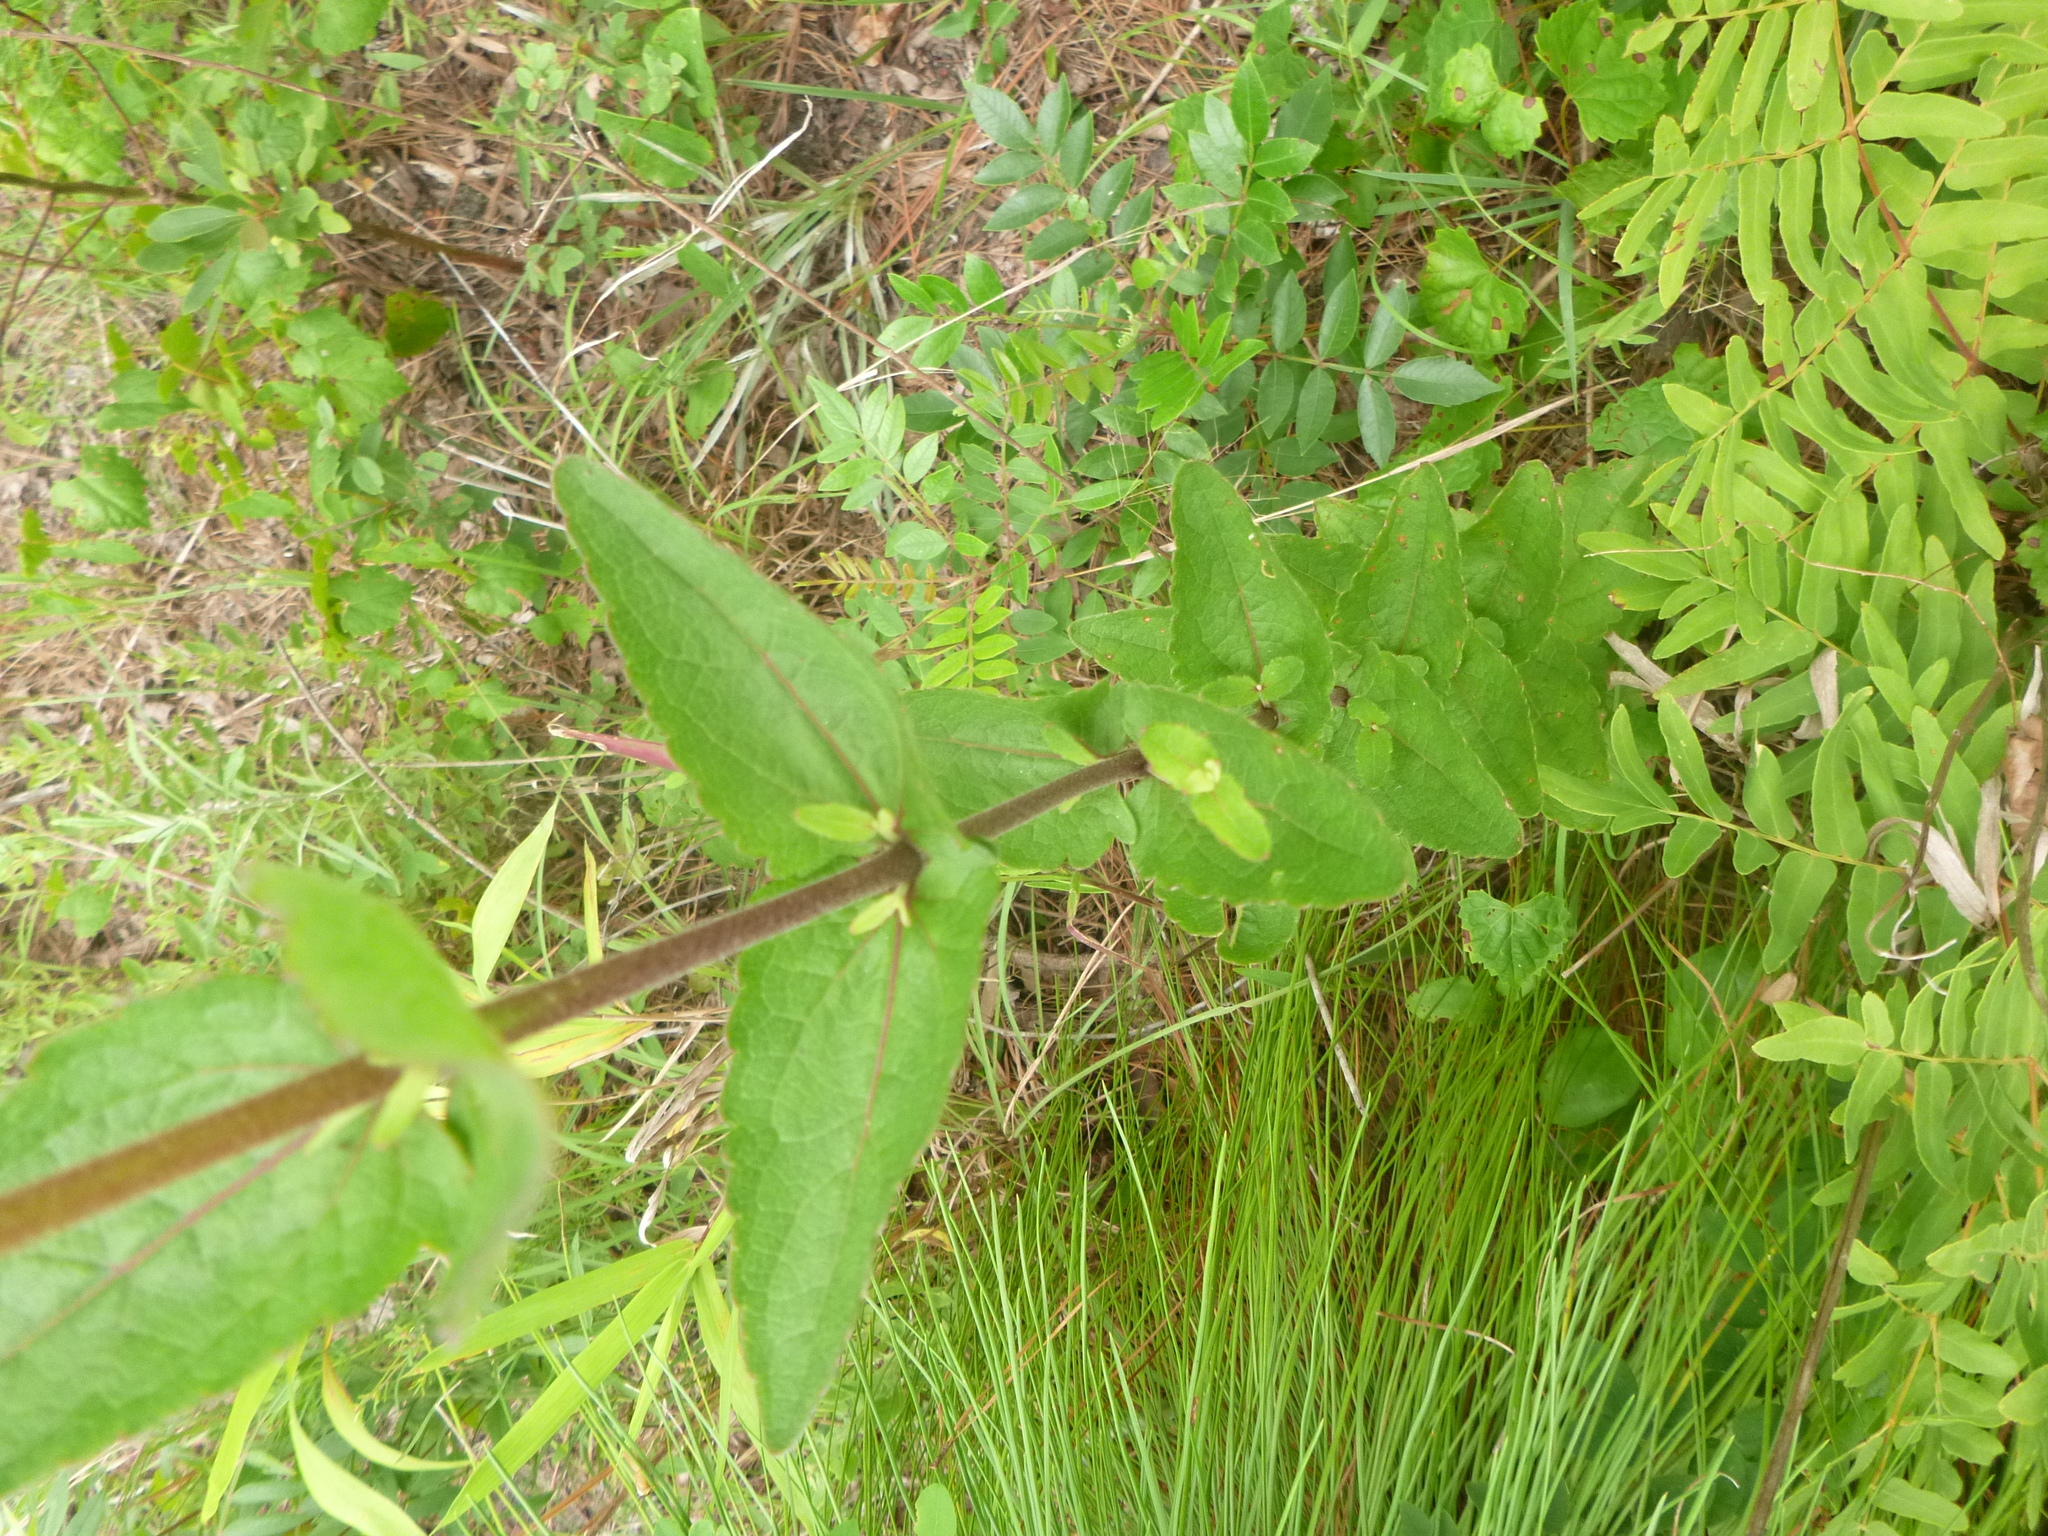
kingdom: Plantae
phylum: Tracheophyta
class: Magnoliopsida
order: Asterales
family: Asteraceae
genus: Eupatorium
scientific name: Eupatorium pilosum
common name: Rough boneset
